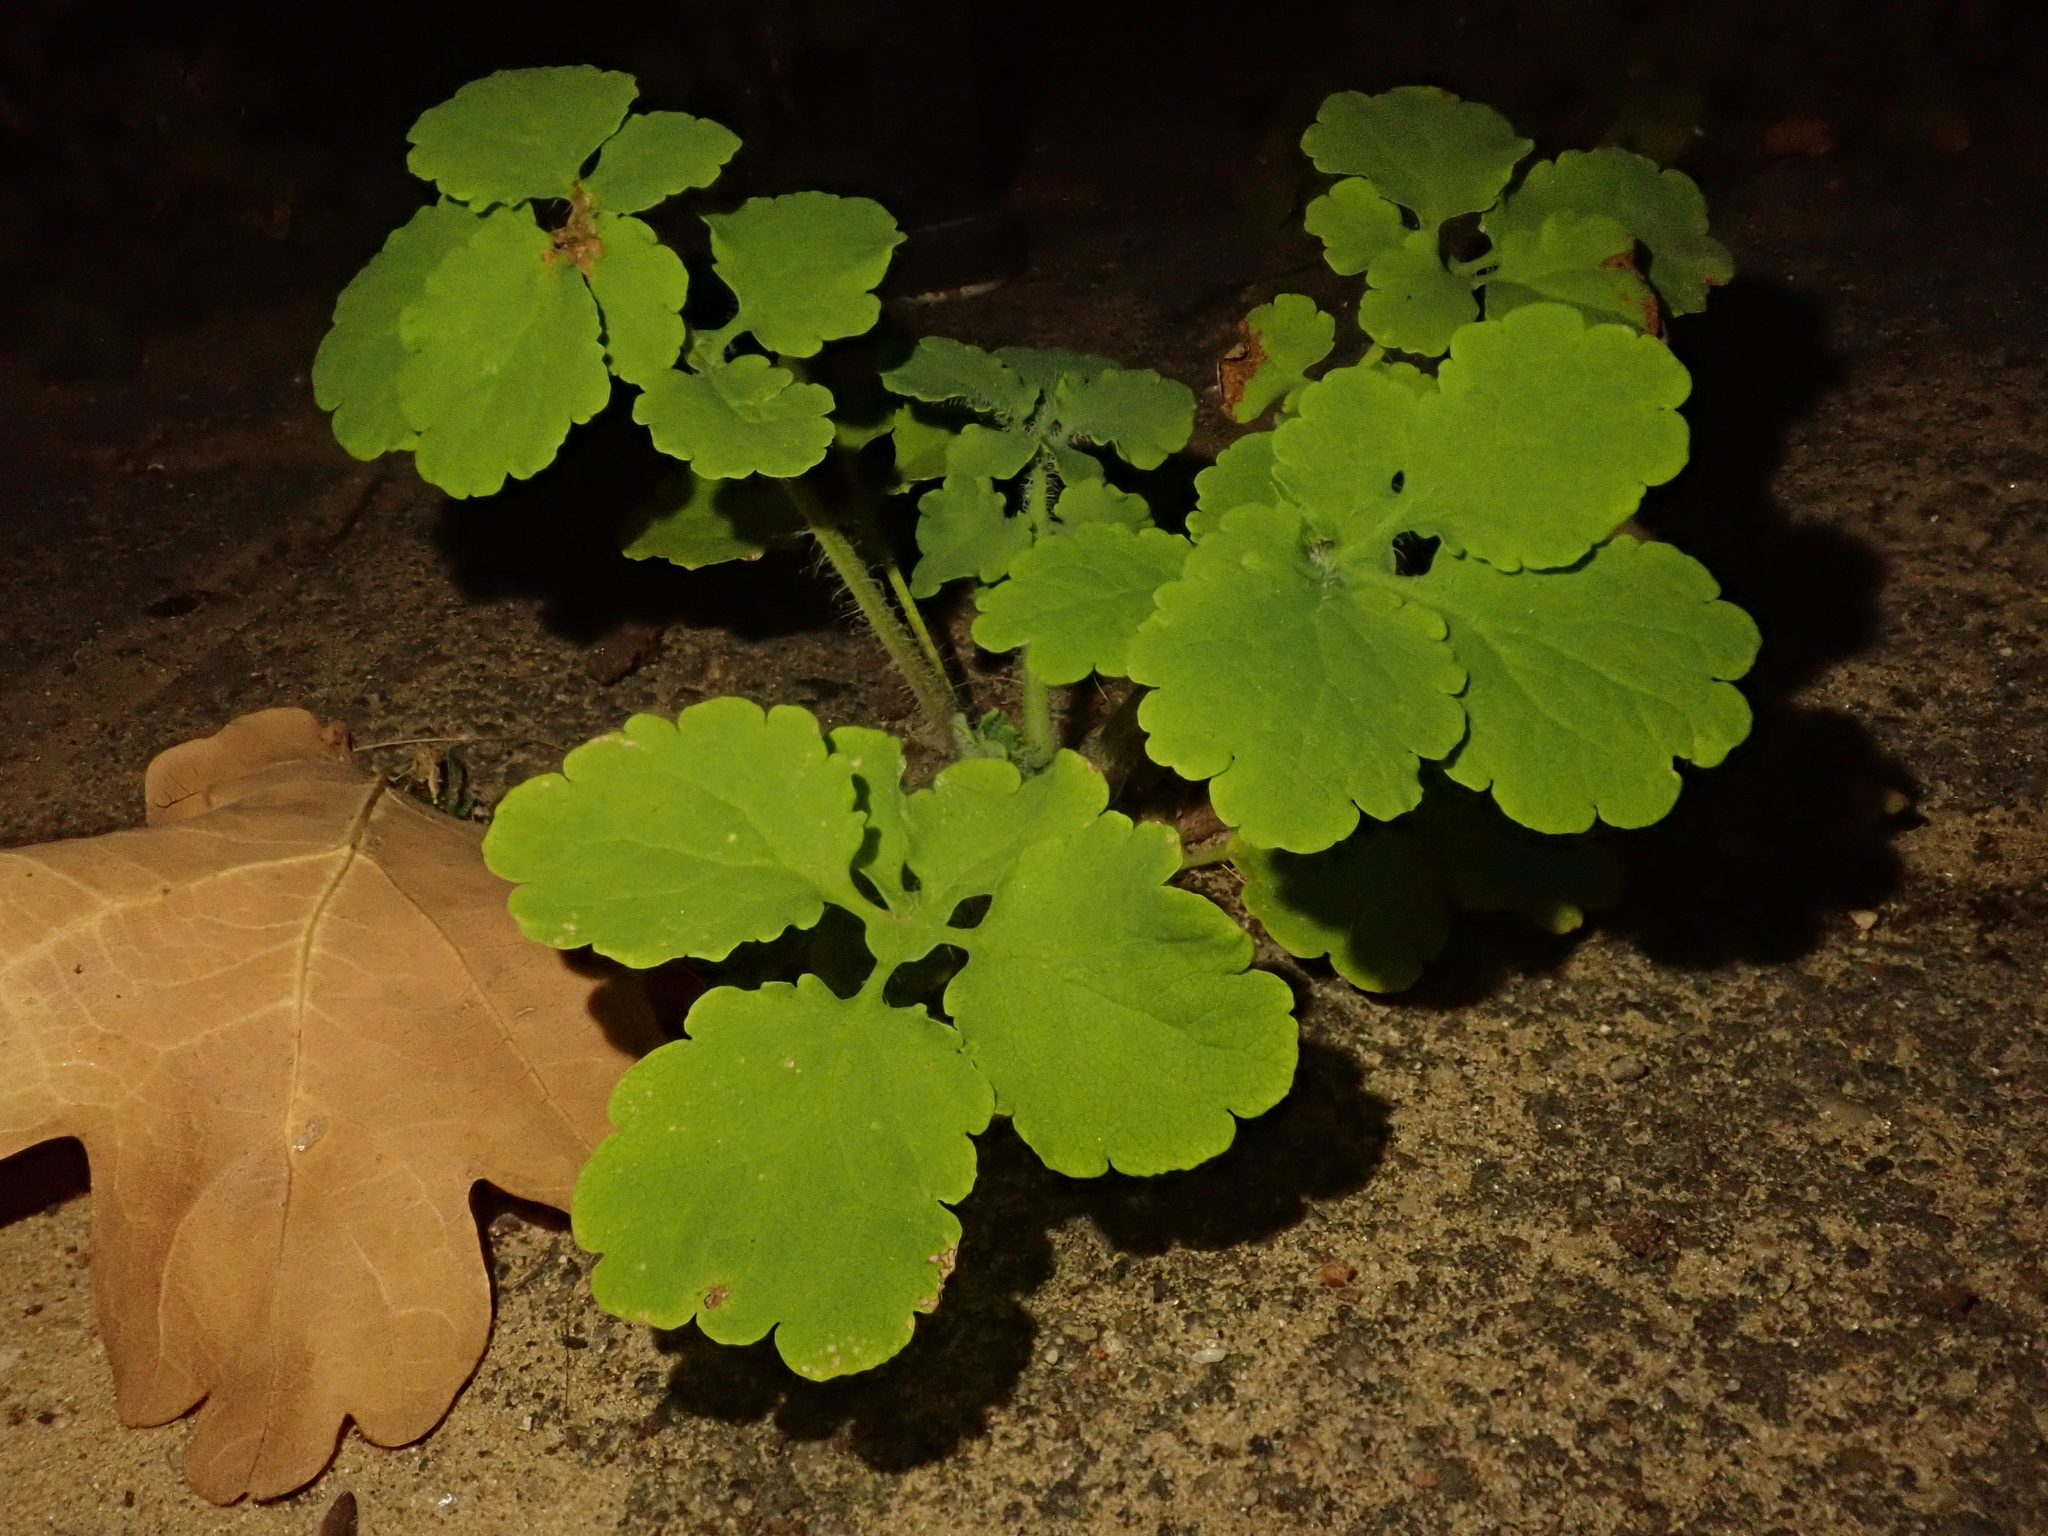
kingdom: Plantae
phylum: Tracheophyta
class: Magnoliopsida
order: Ranunculales
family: Papaveraceae
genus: Chelidonium
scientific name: Chelidonium majus
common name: Greater celandine
